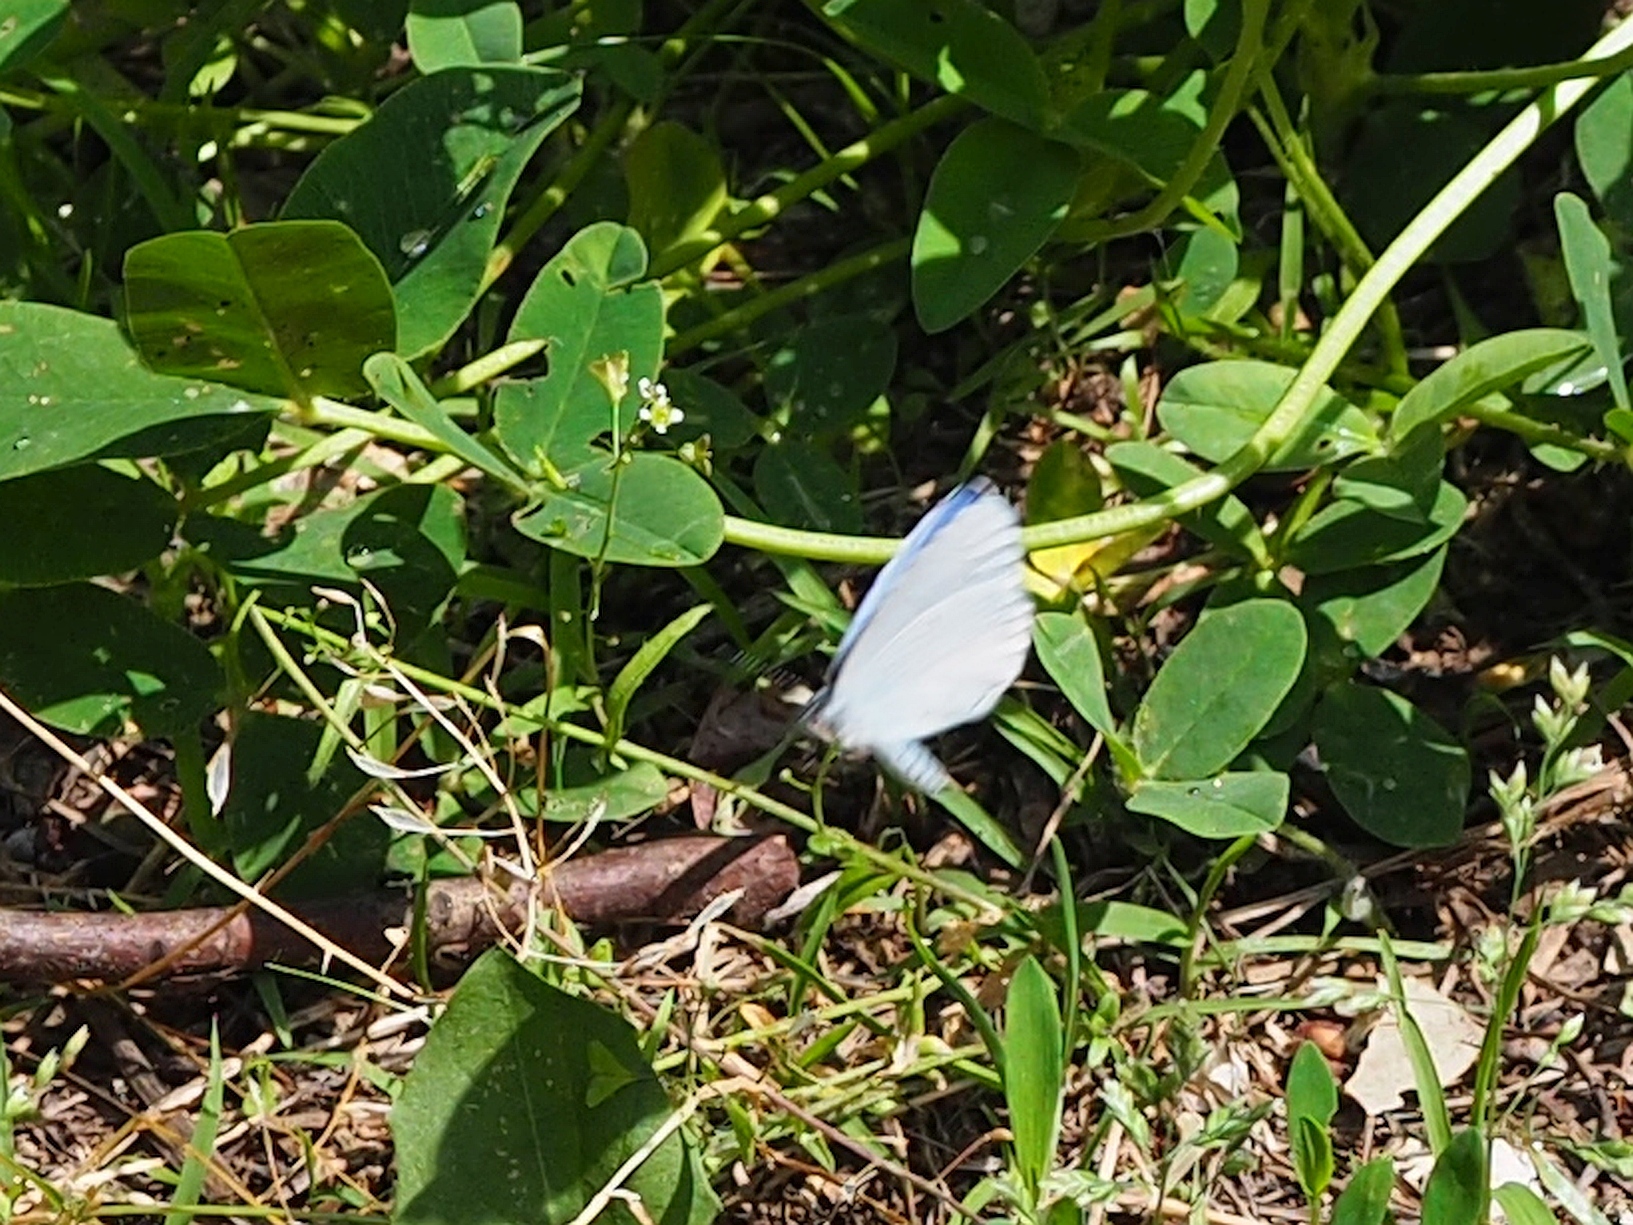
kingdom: Animalia
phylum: Arthropoda
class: Insecta
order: Lepidoptera
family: Lycaenidae
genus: Celastrina
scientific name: Celastrina argiolus
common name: Holly blue
